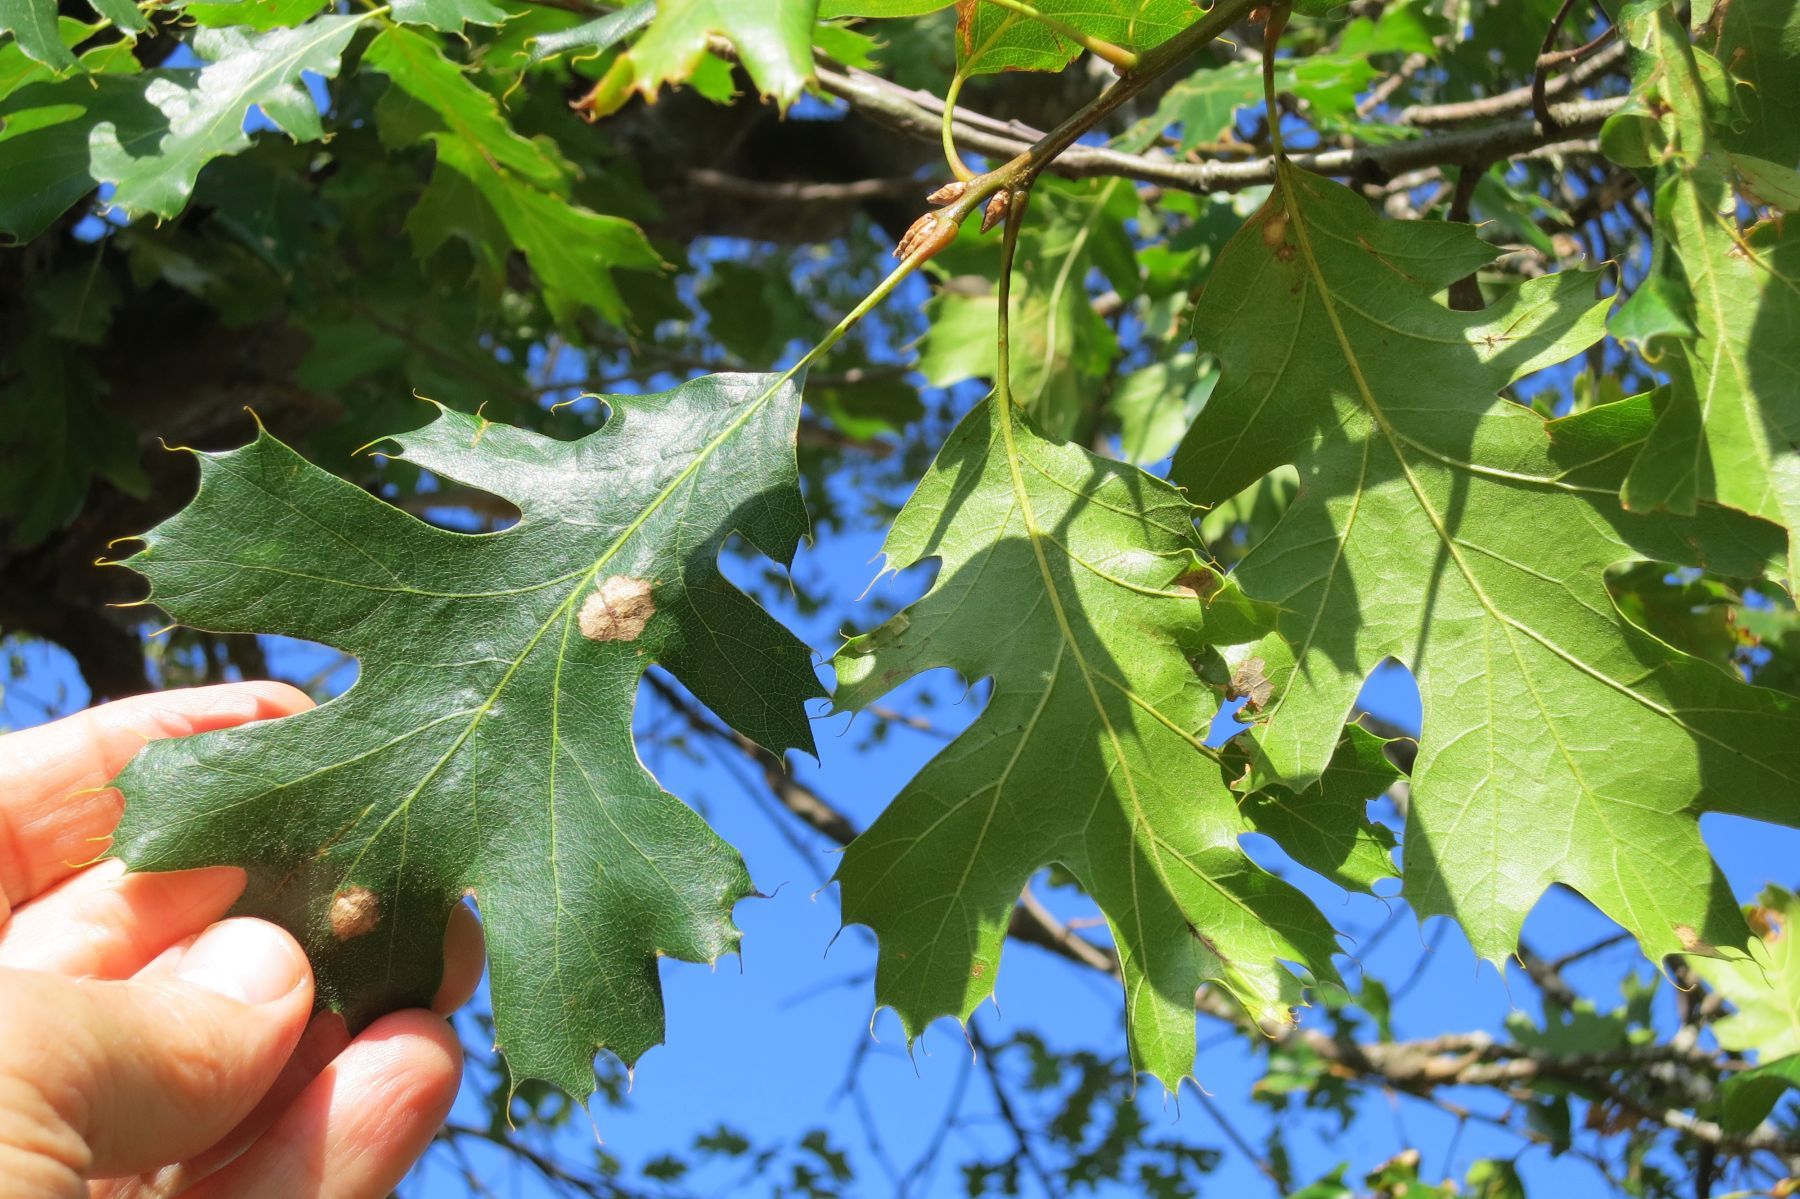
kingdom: Plantae
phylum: Tracheophyta
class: Magnoliopsida
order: Fagales
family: Fagaceae
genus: Quercus
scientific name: Quercus kelloggii
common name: California black oak
